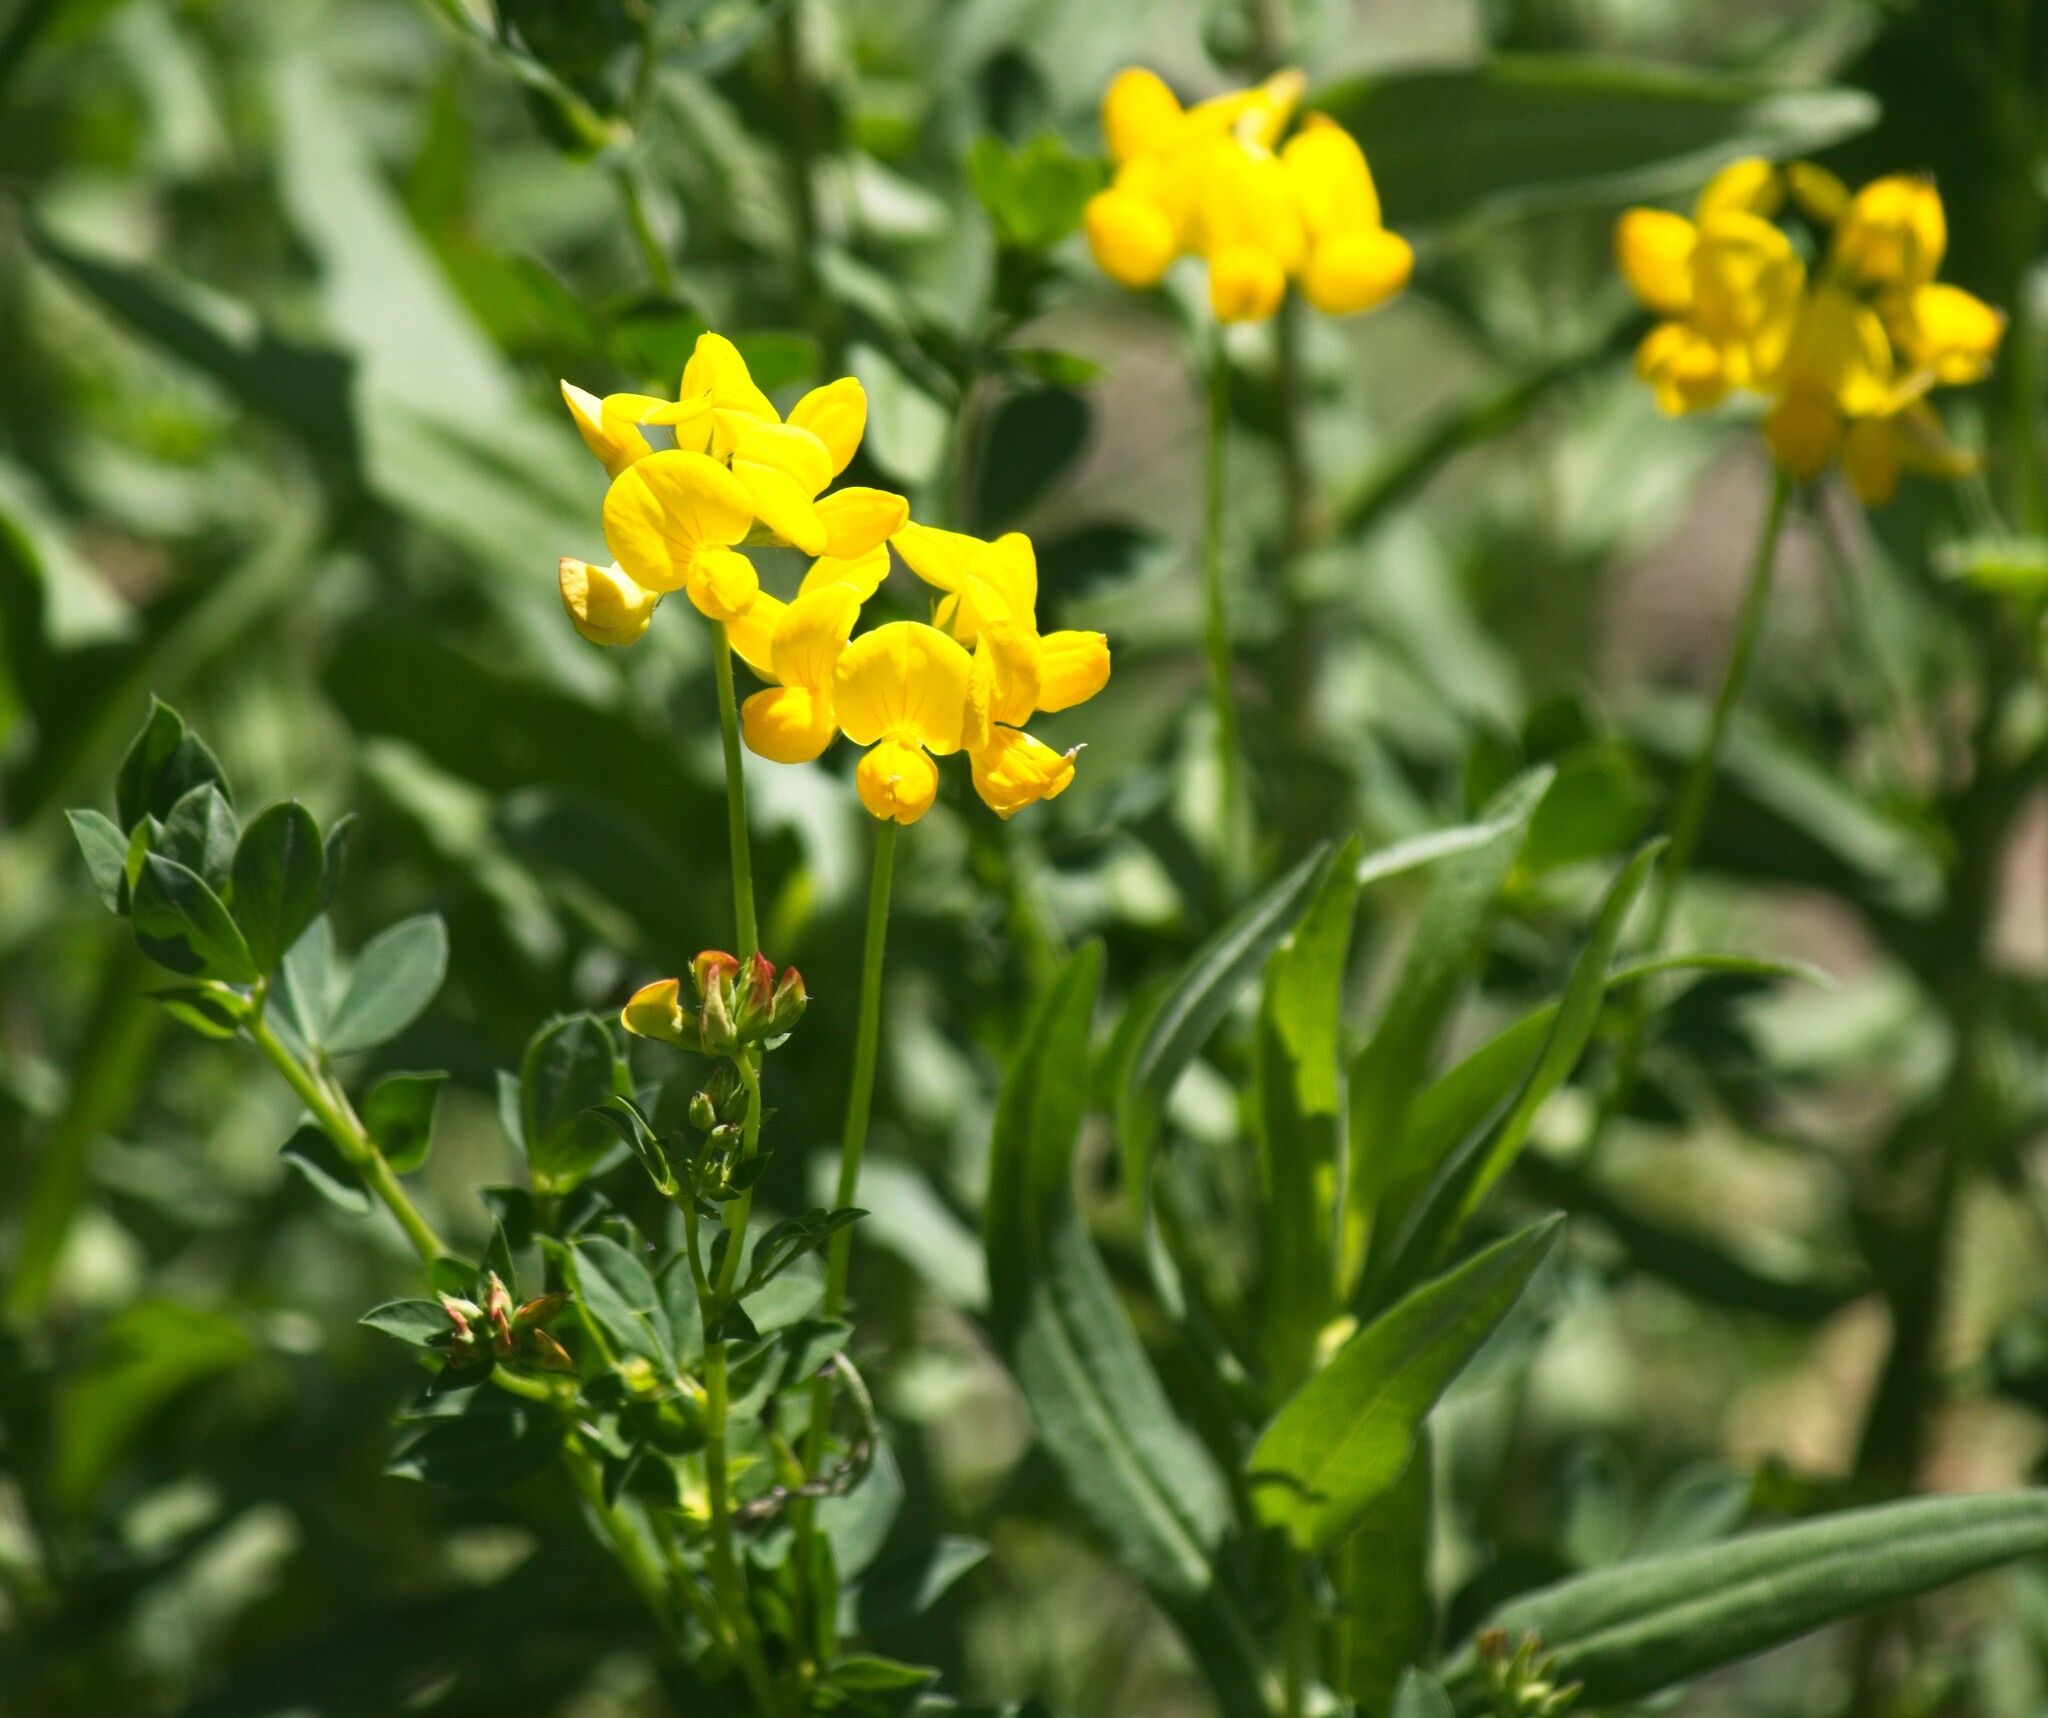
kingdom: Plantae
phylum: Tracheophyta
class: Magnoliopsida
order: Fabales
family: Fabaceae
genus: Lotus
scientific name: Lotus corniculatus
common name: Common bird's-foot-trefoil
